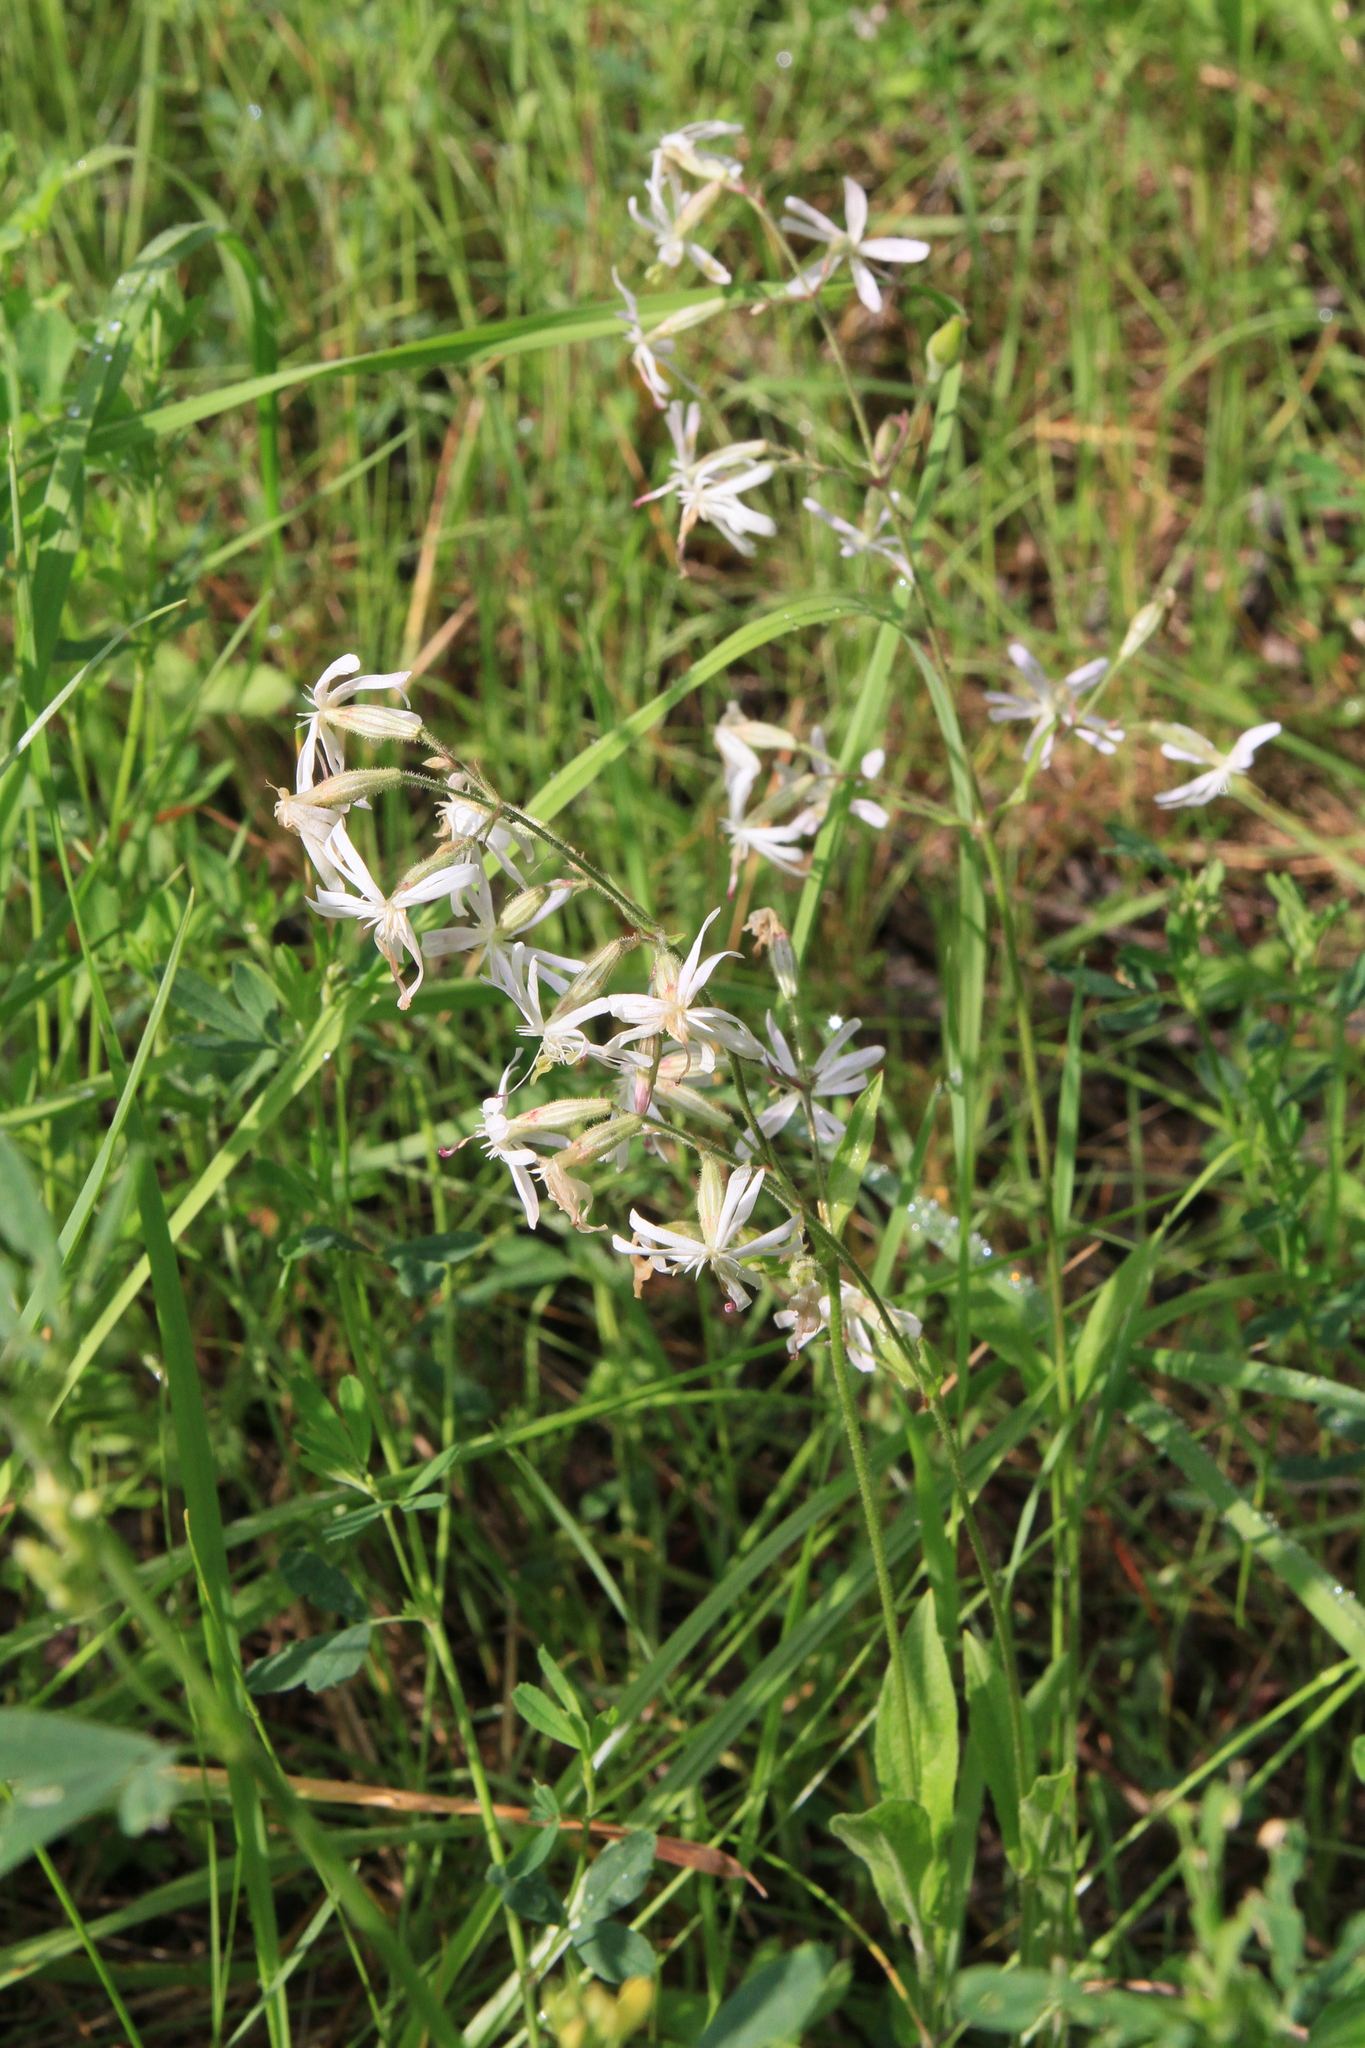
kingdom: Plantae
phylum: Tracheophyta
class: Magnoliopsida
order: Caryophyllales
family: Caryophyllaceae
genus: Silene
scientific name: Silene nutans
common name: Nottingham catchfly
